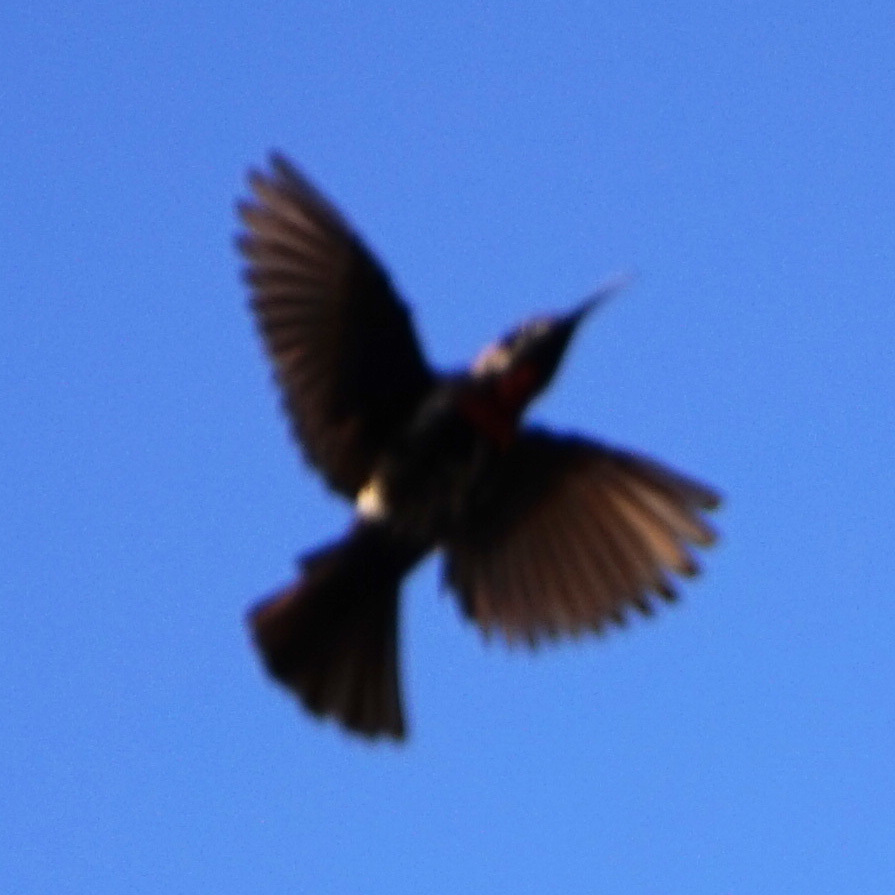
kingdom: Animalia
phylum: Chordata
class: Aves
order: Passeriformes
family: Nectariniidae
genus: Chalcomitra
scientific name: Chalcomitra senegalensis
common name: Scarlet-chested sunbird
